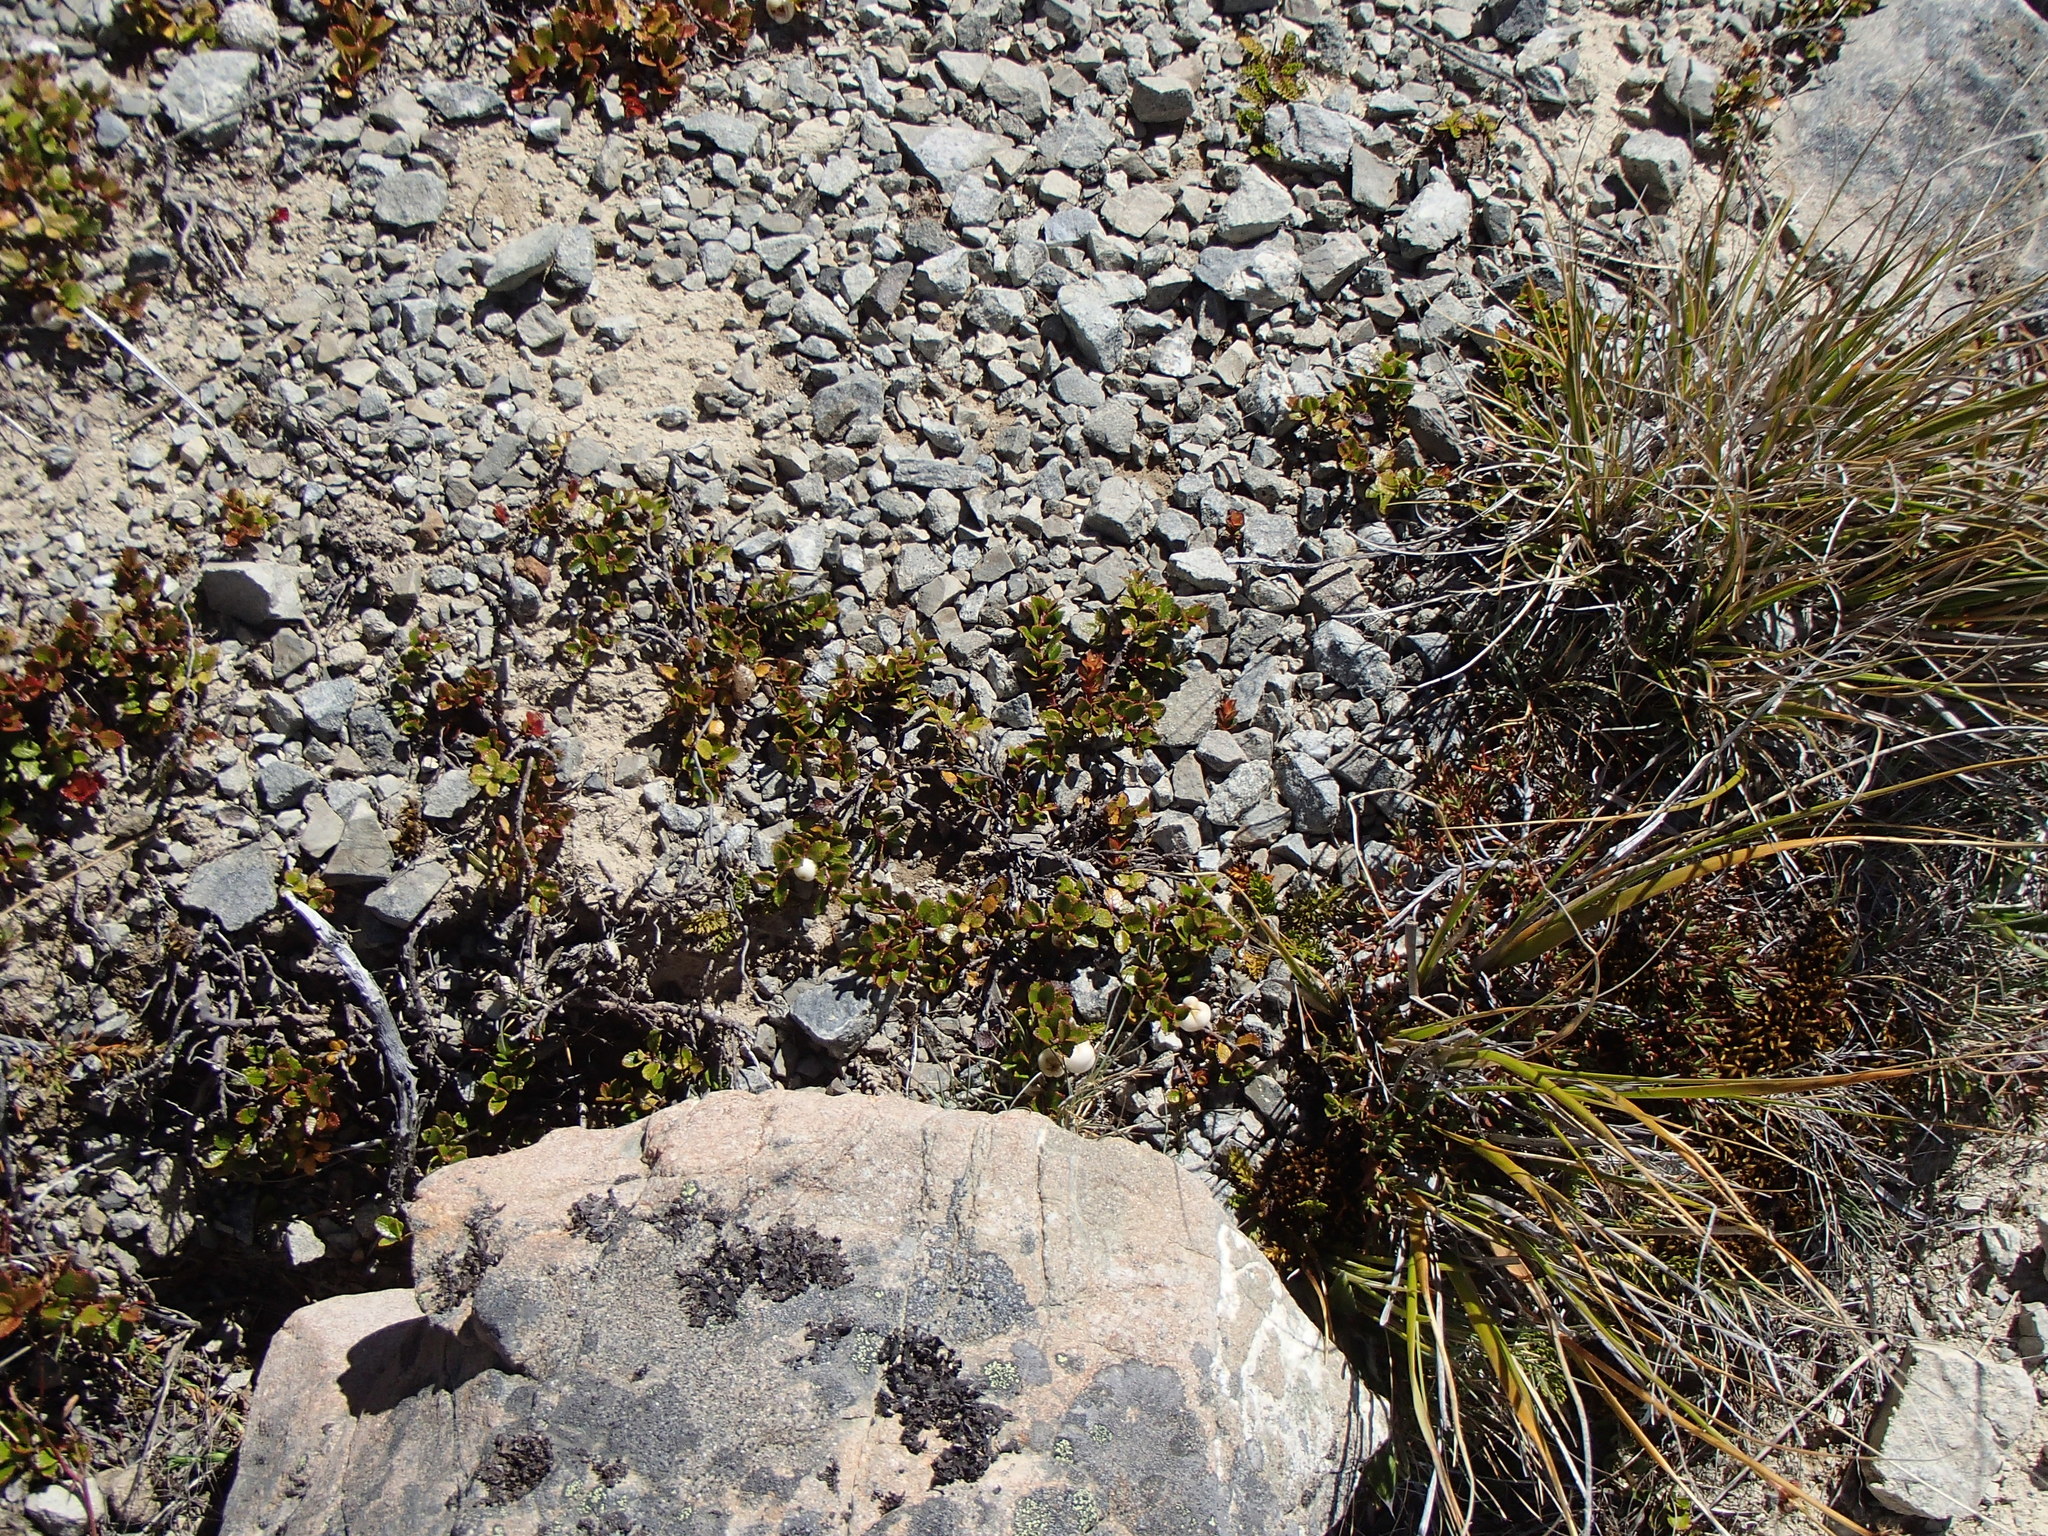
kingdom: Plantae
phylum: Tracheophyta
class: Magnoliopsida
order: Ericales
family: Ericaceae
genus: Gaultheria
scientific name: Gaultheria depressa
